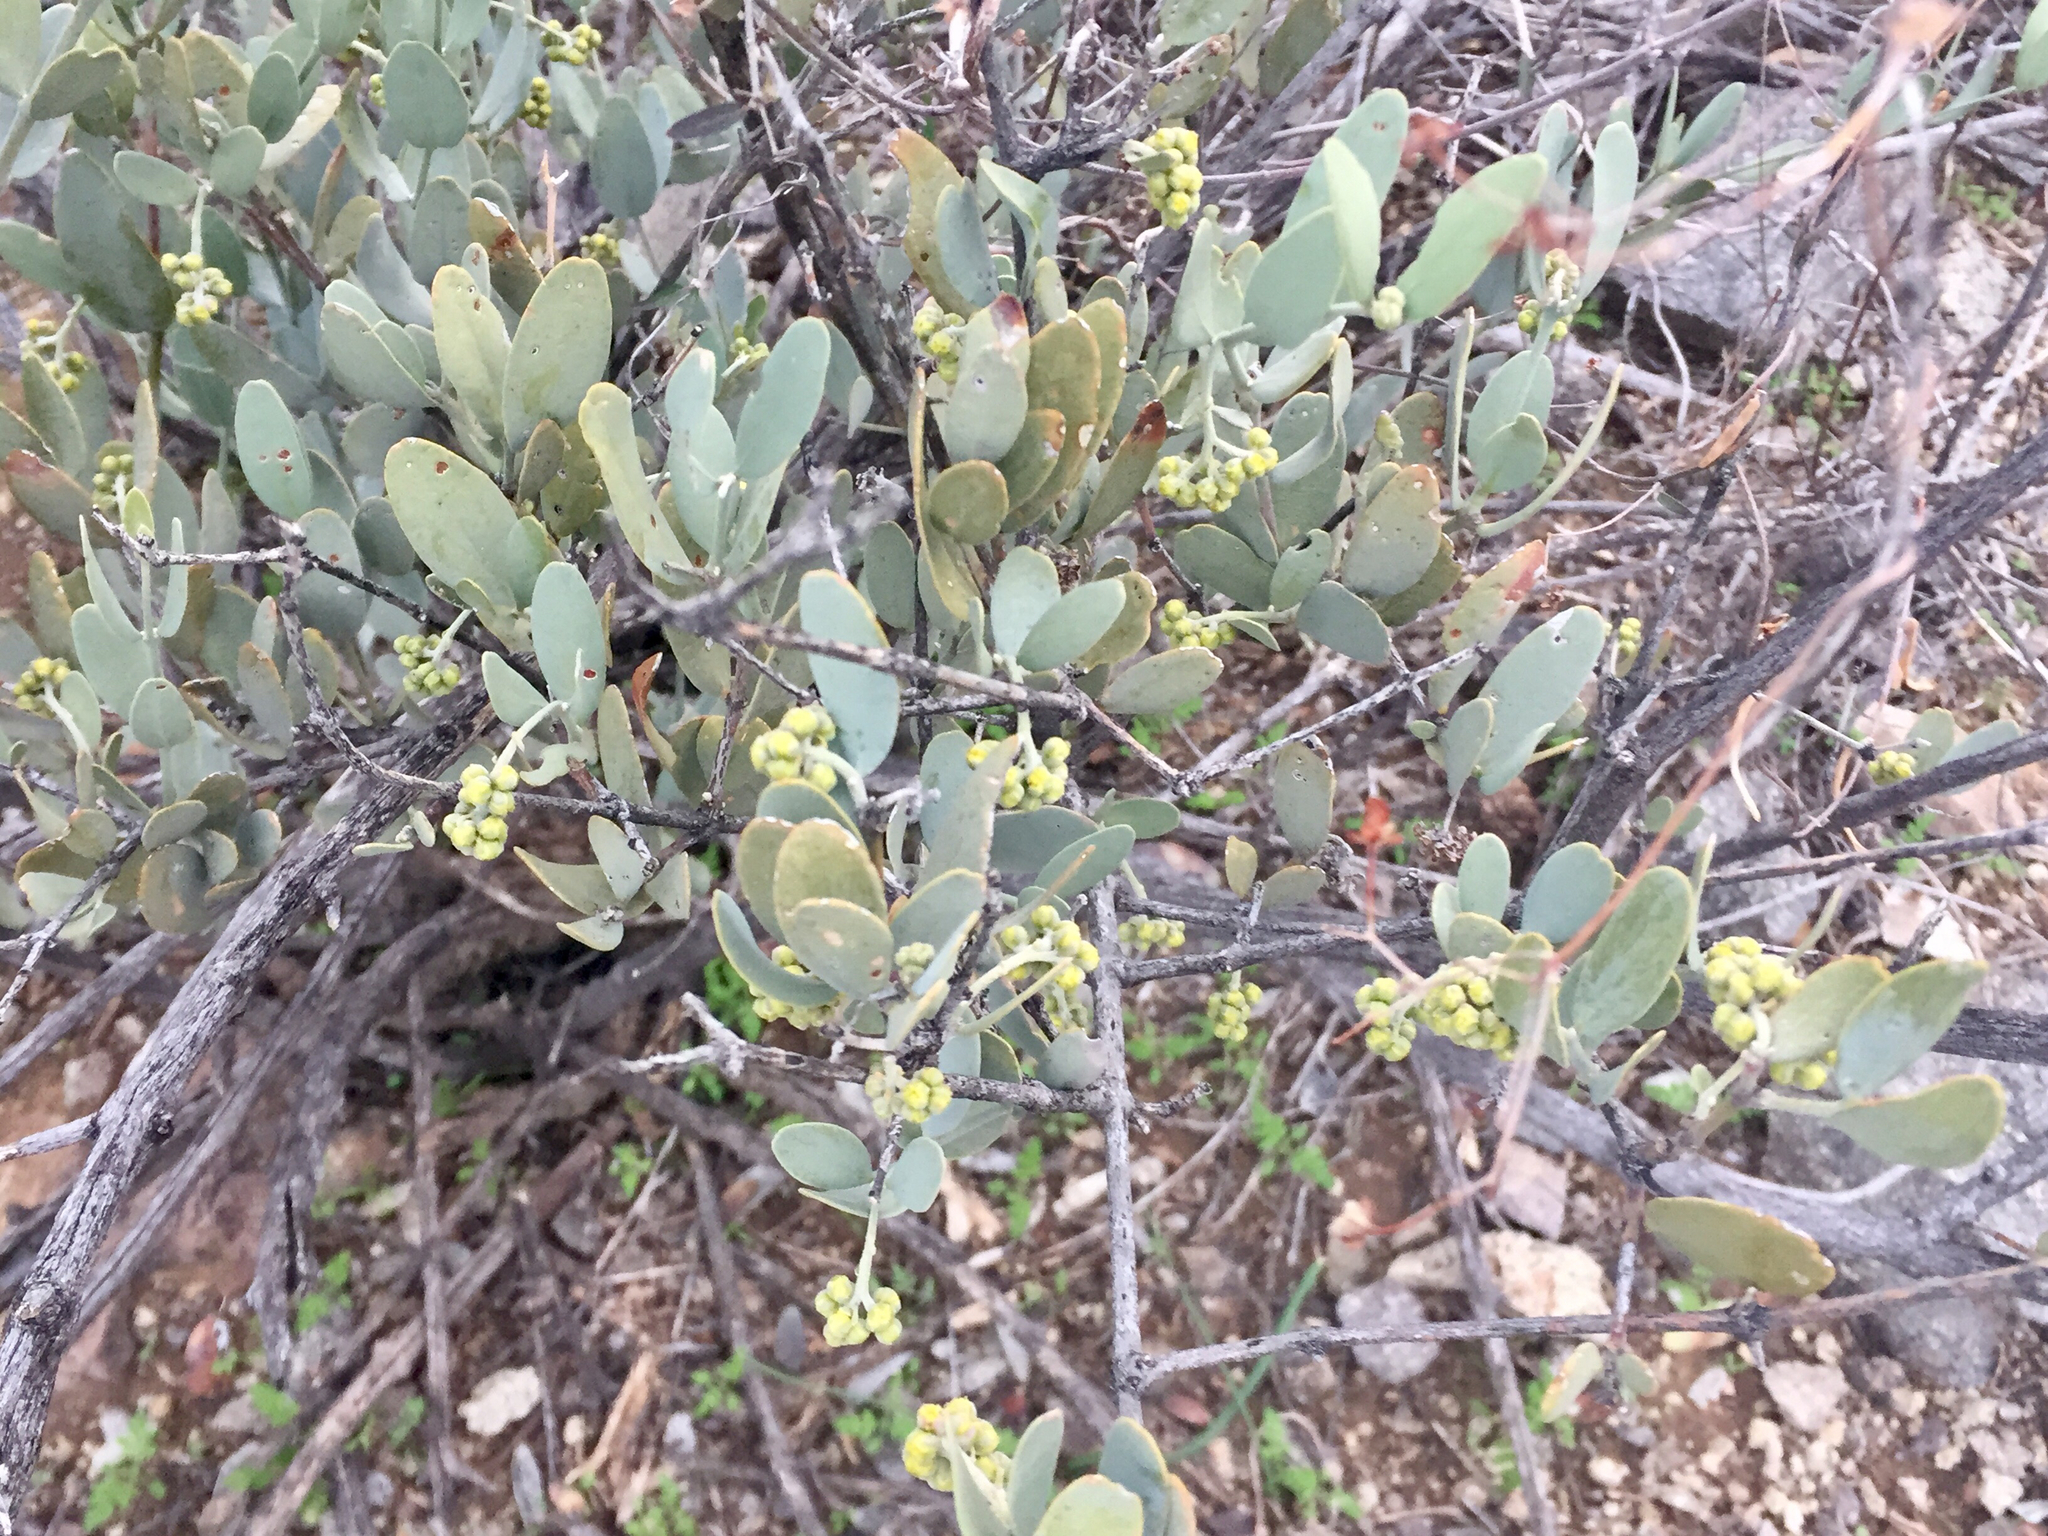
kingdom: Plantae
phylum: Tracheophyta
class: Magnoliopsida
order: Caryophyllales
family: Simmondsiaceae
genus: Simmondsia
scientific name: Simmondsia chinensis
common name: Jojoba
